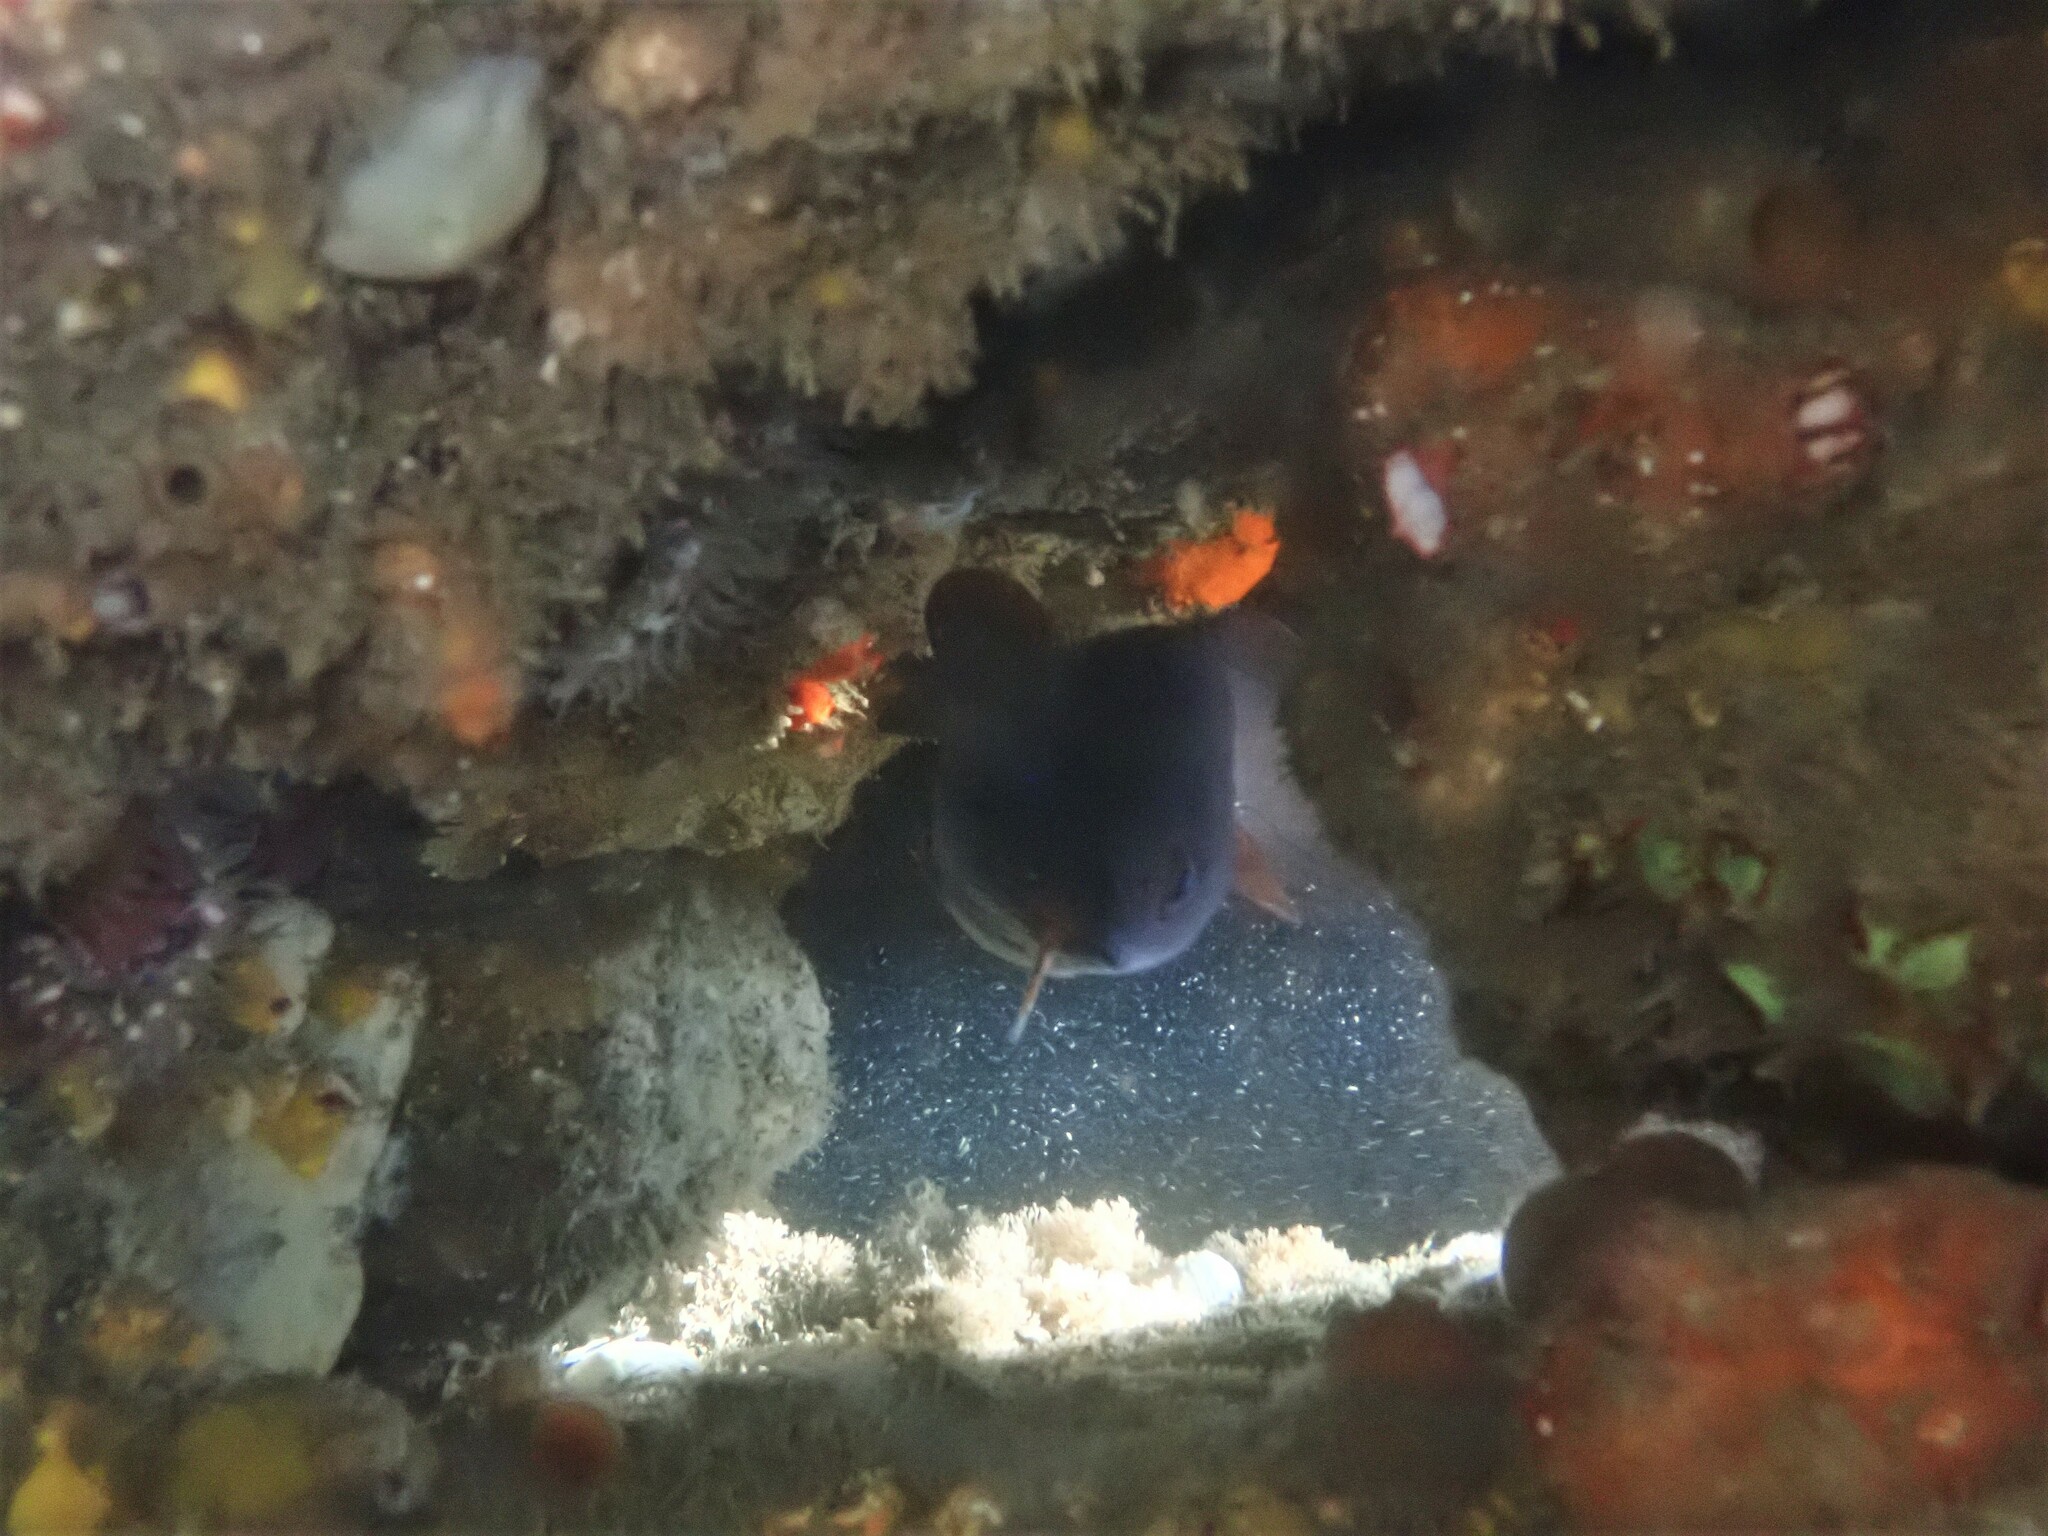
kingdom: Animalia
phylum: Chordata
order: Gadiformes
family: Moridae
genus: Lotella
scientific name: Lotella rhacina
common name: Rock cod
